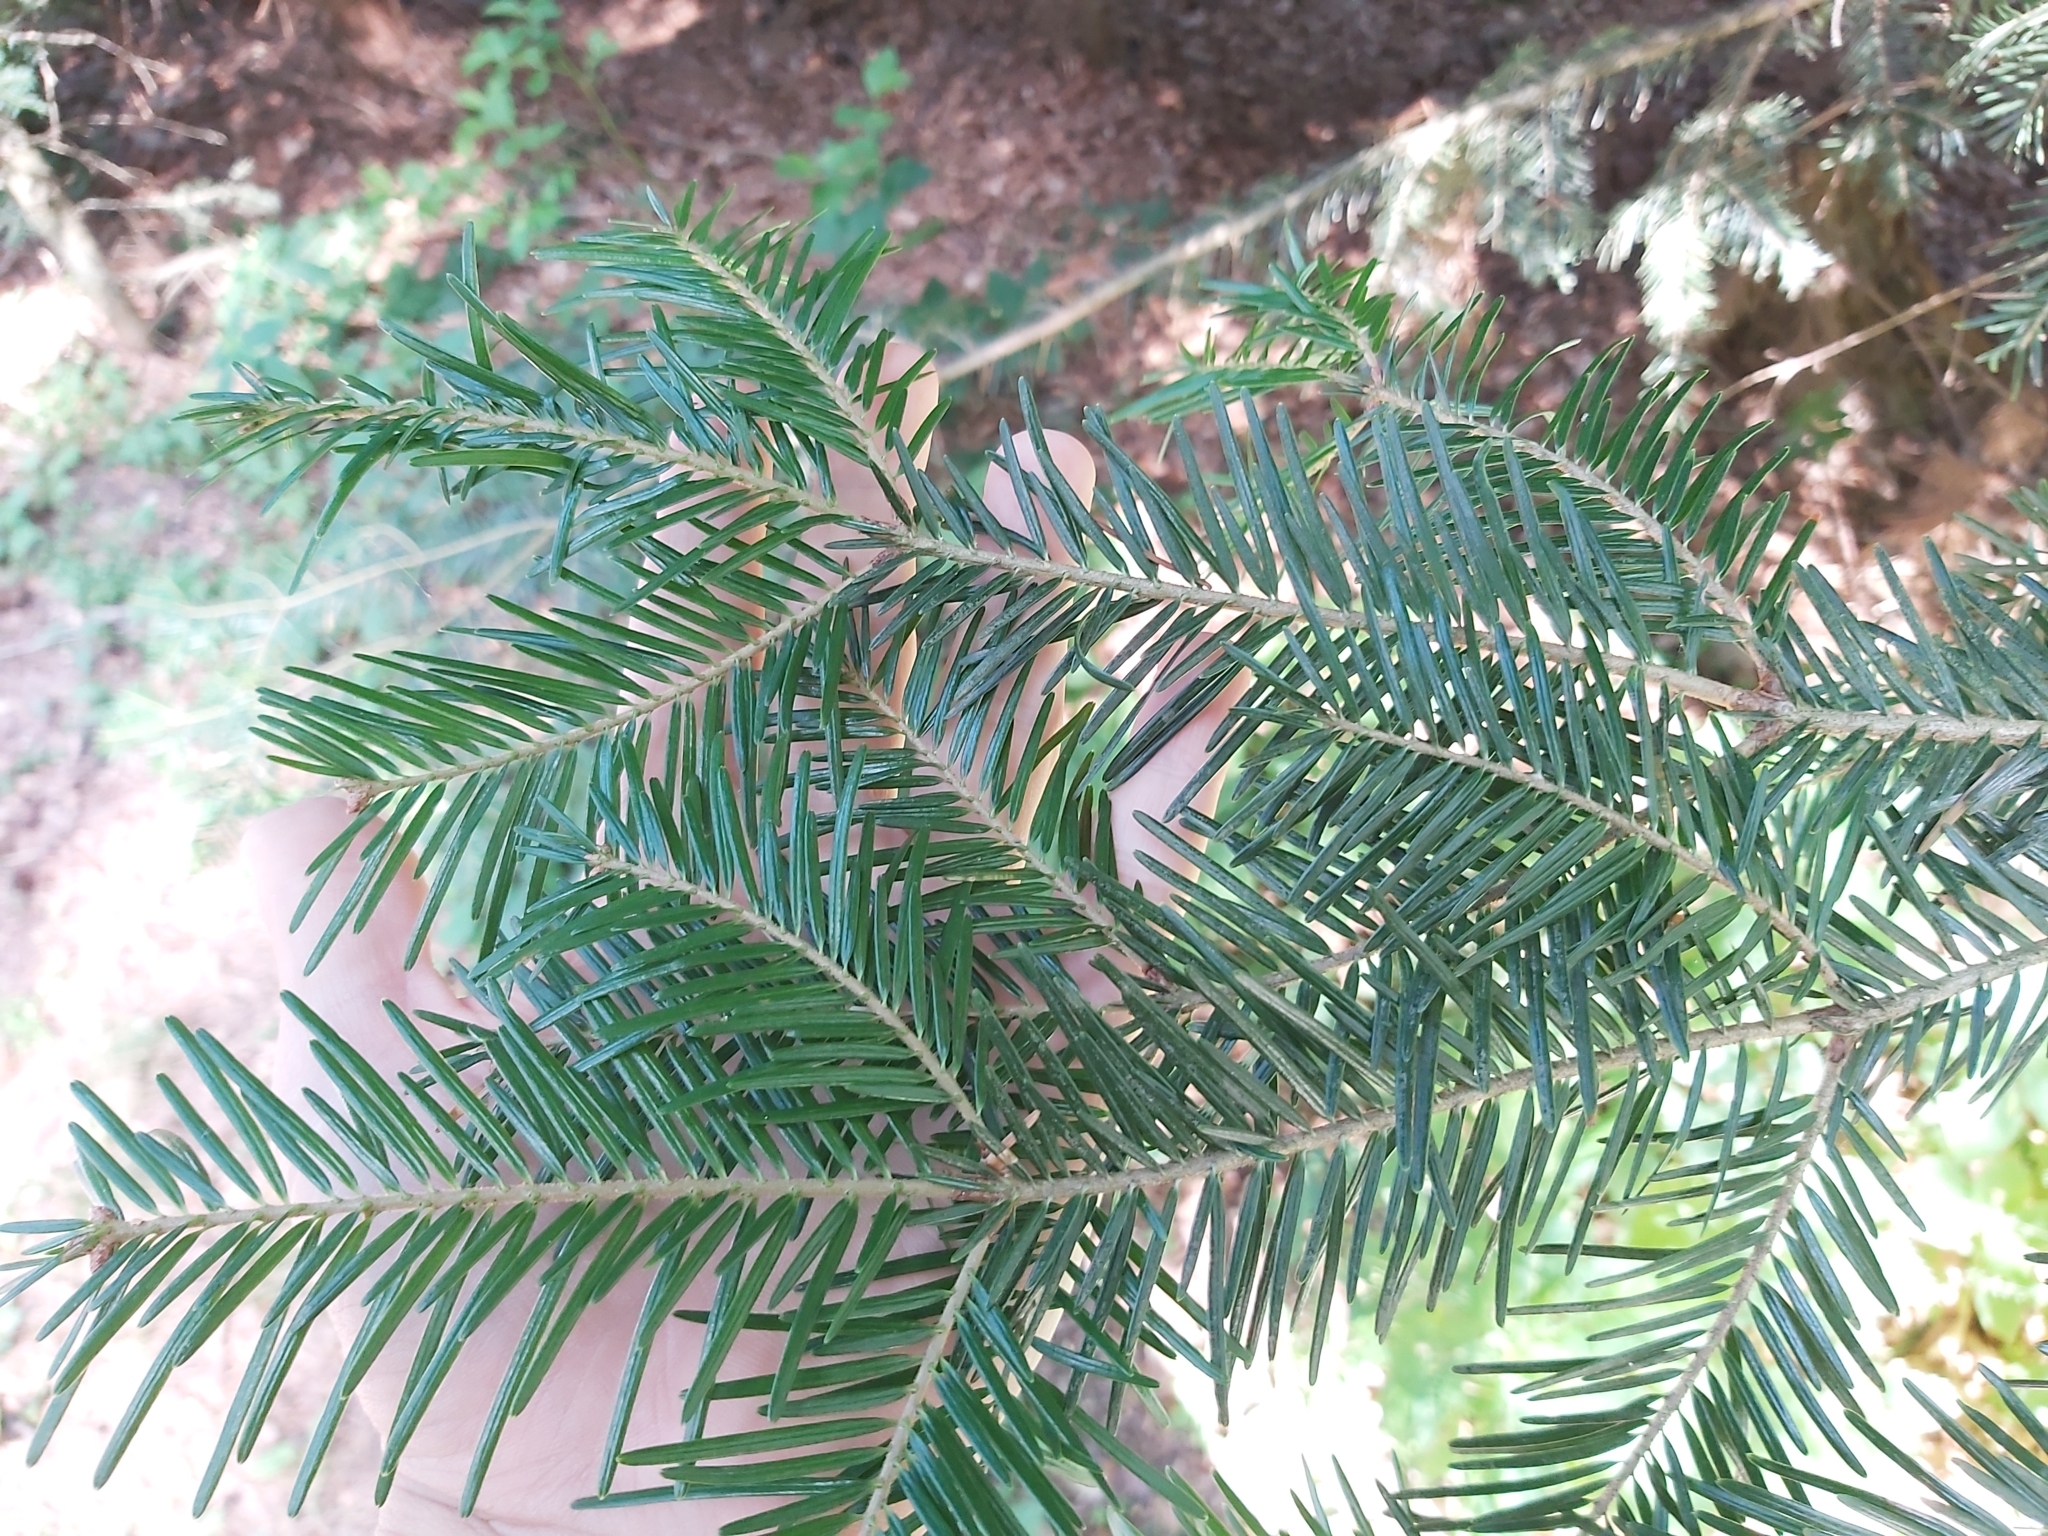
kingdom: Plantae
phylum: Tracheophyta
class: Pinopsida
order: Pinales
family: Pinaceae
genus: Abies
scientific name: Abies alba
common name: Silver fir
